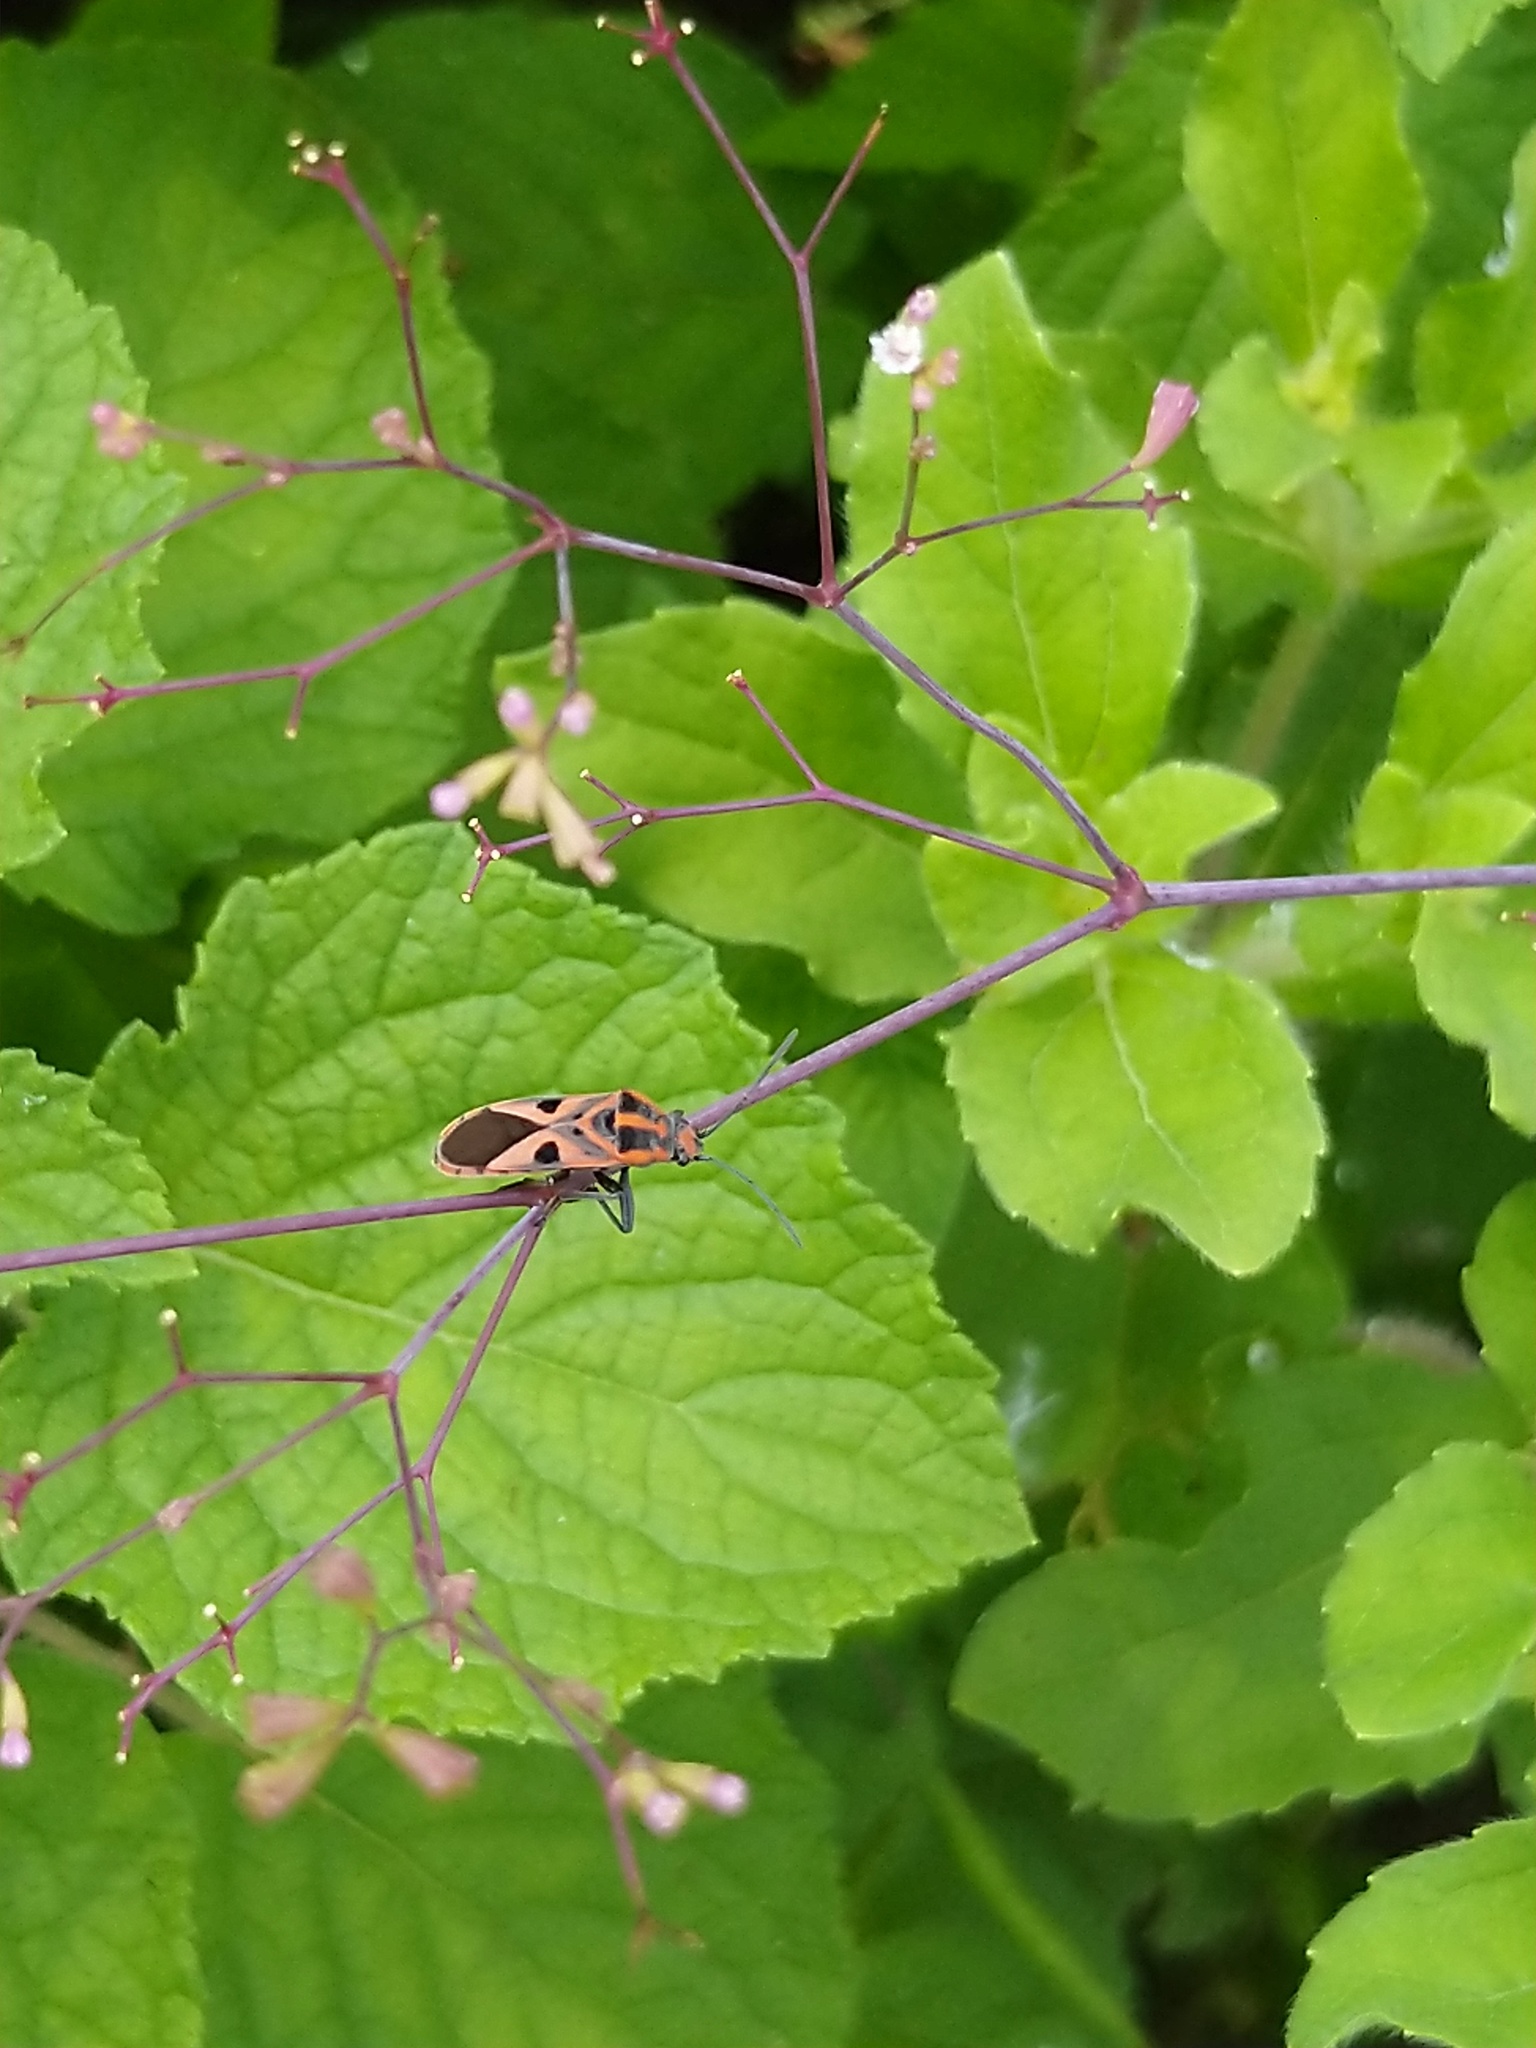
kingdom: Animalia
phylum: Arthropoda
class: Insecta
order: Hemiptera
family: Lygaeidae
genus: Spilostethus
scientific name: Spilostethus hospes
